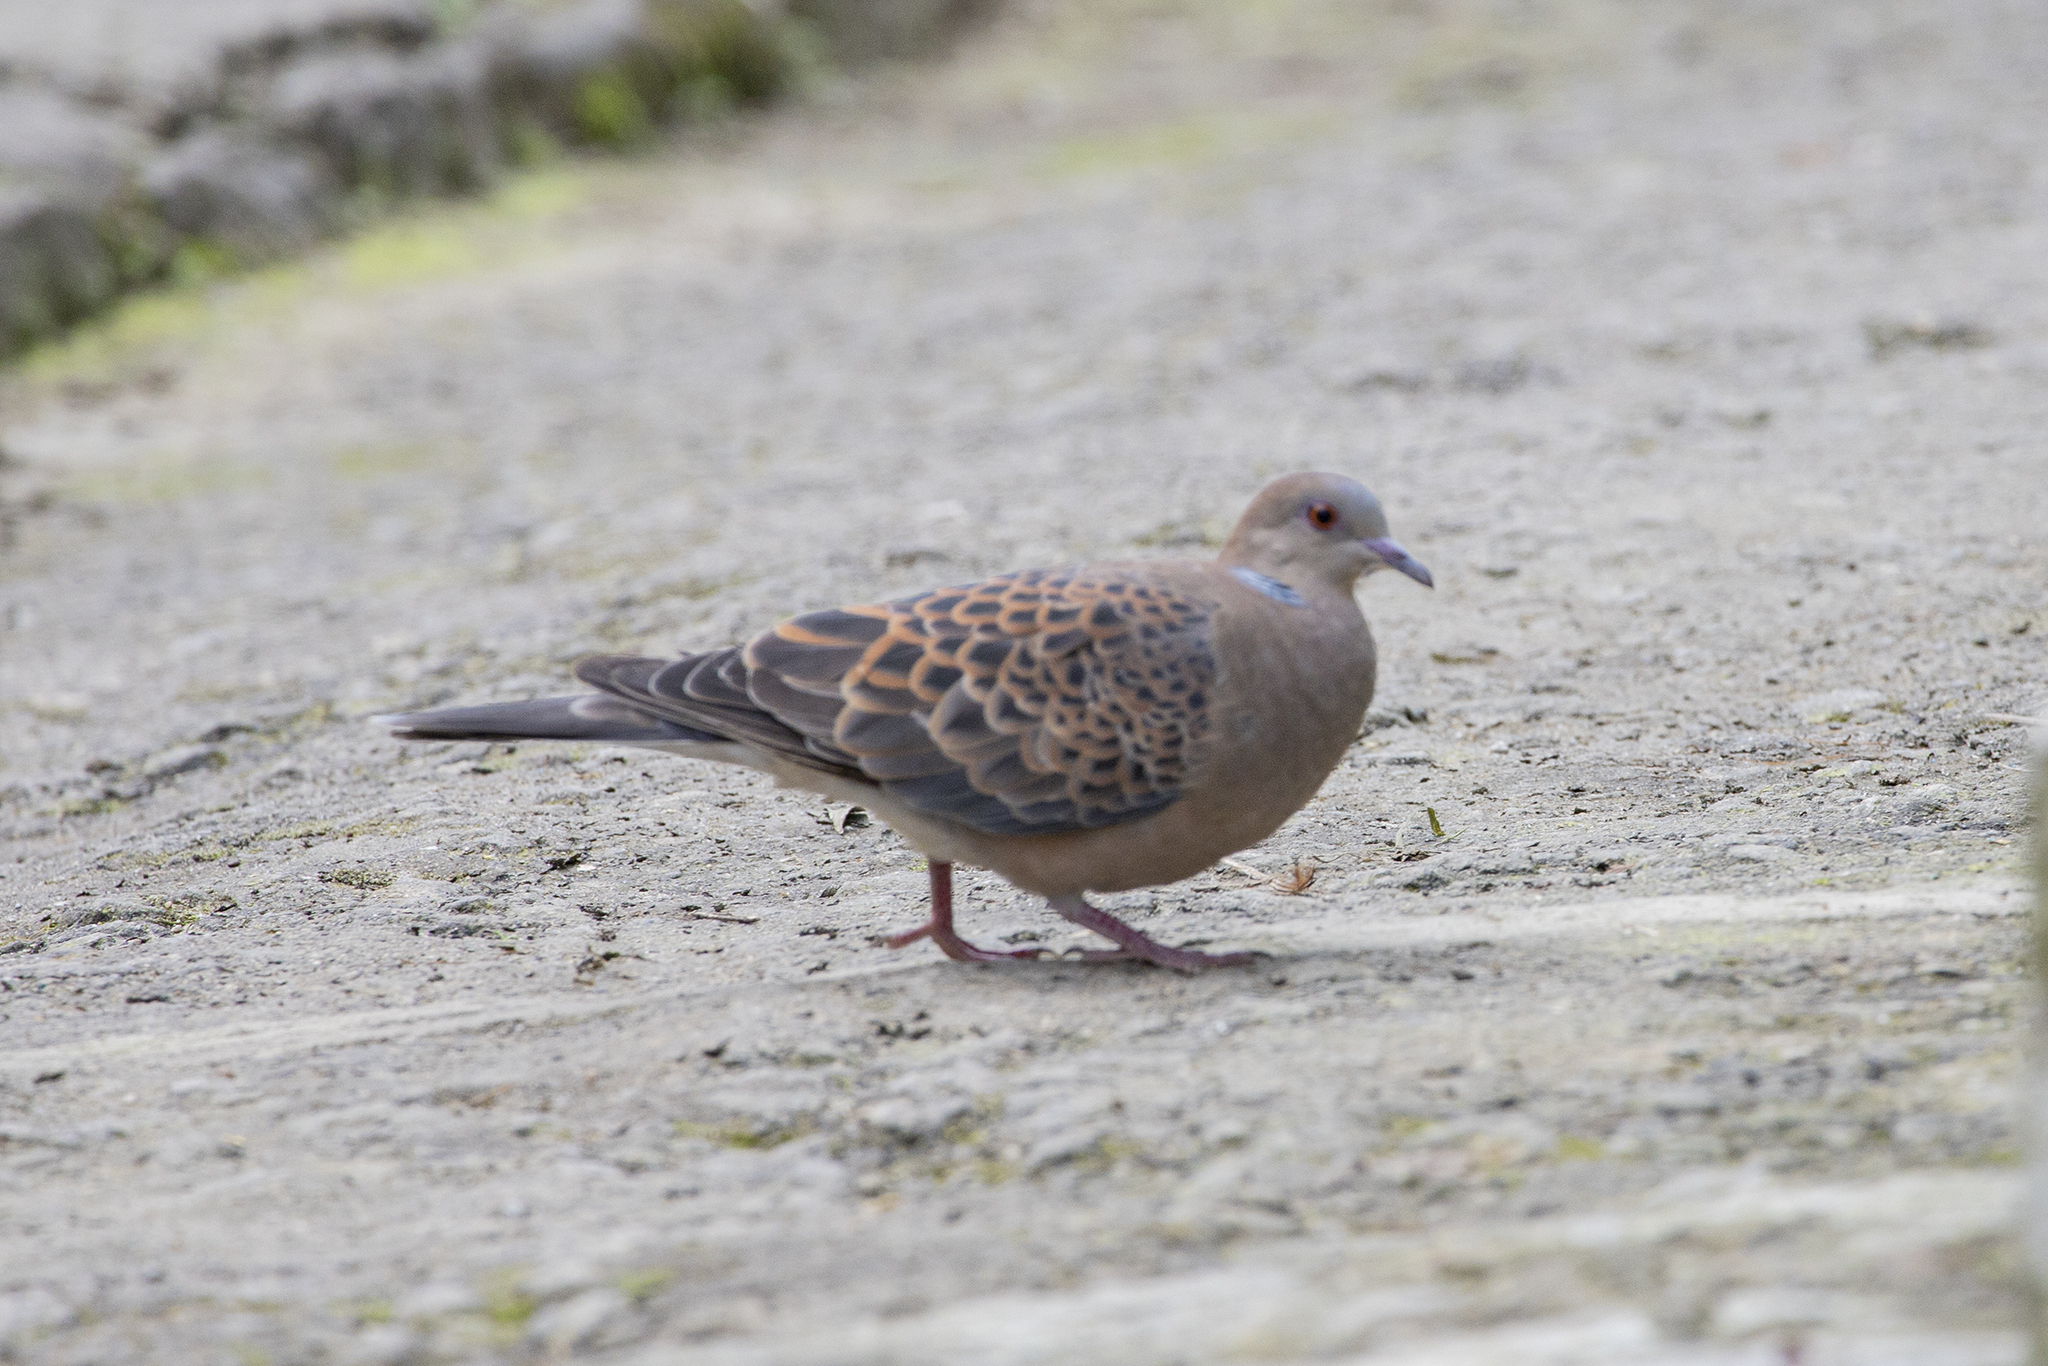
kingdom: Animalia
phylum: Chordata
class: Aves
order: Columbiformes
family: Columbidae
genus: Streptopelia
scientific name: Streptopelia orientalis
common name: Oriental turtle dove
